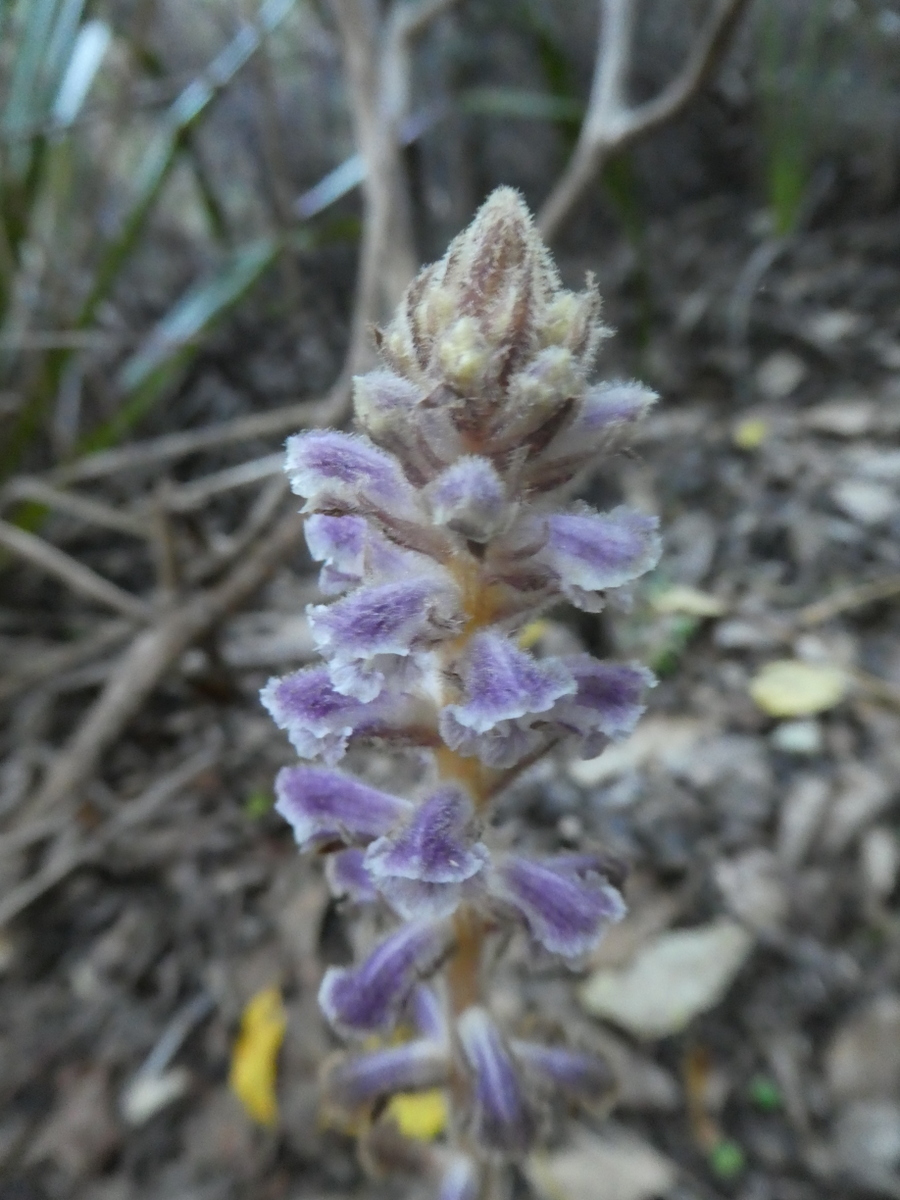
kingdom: Plantae
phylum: Tracheophyta
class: Magnoliopsida
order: Lamiales
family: Orobanchaceae
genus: Orobanche
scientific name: Orobanche minor
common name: Common broomrape
